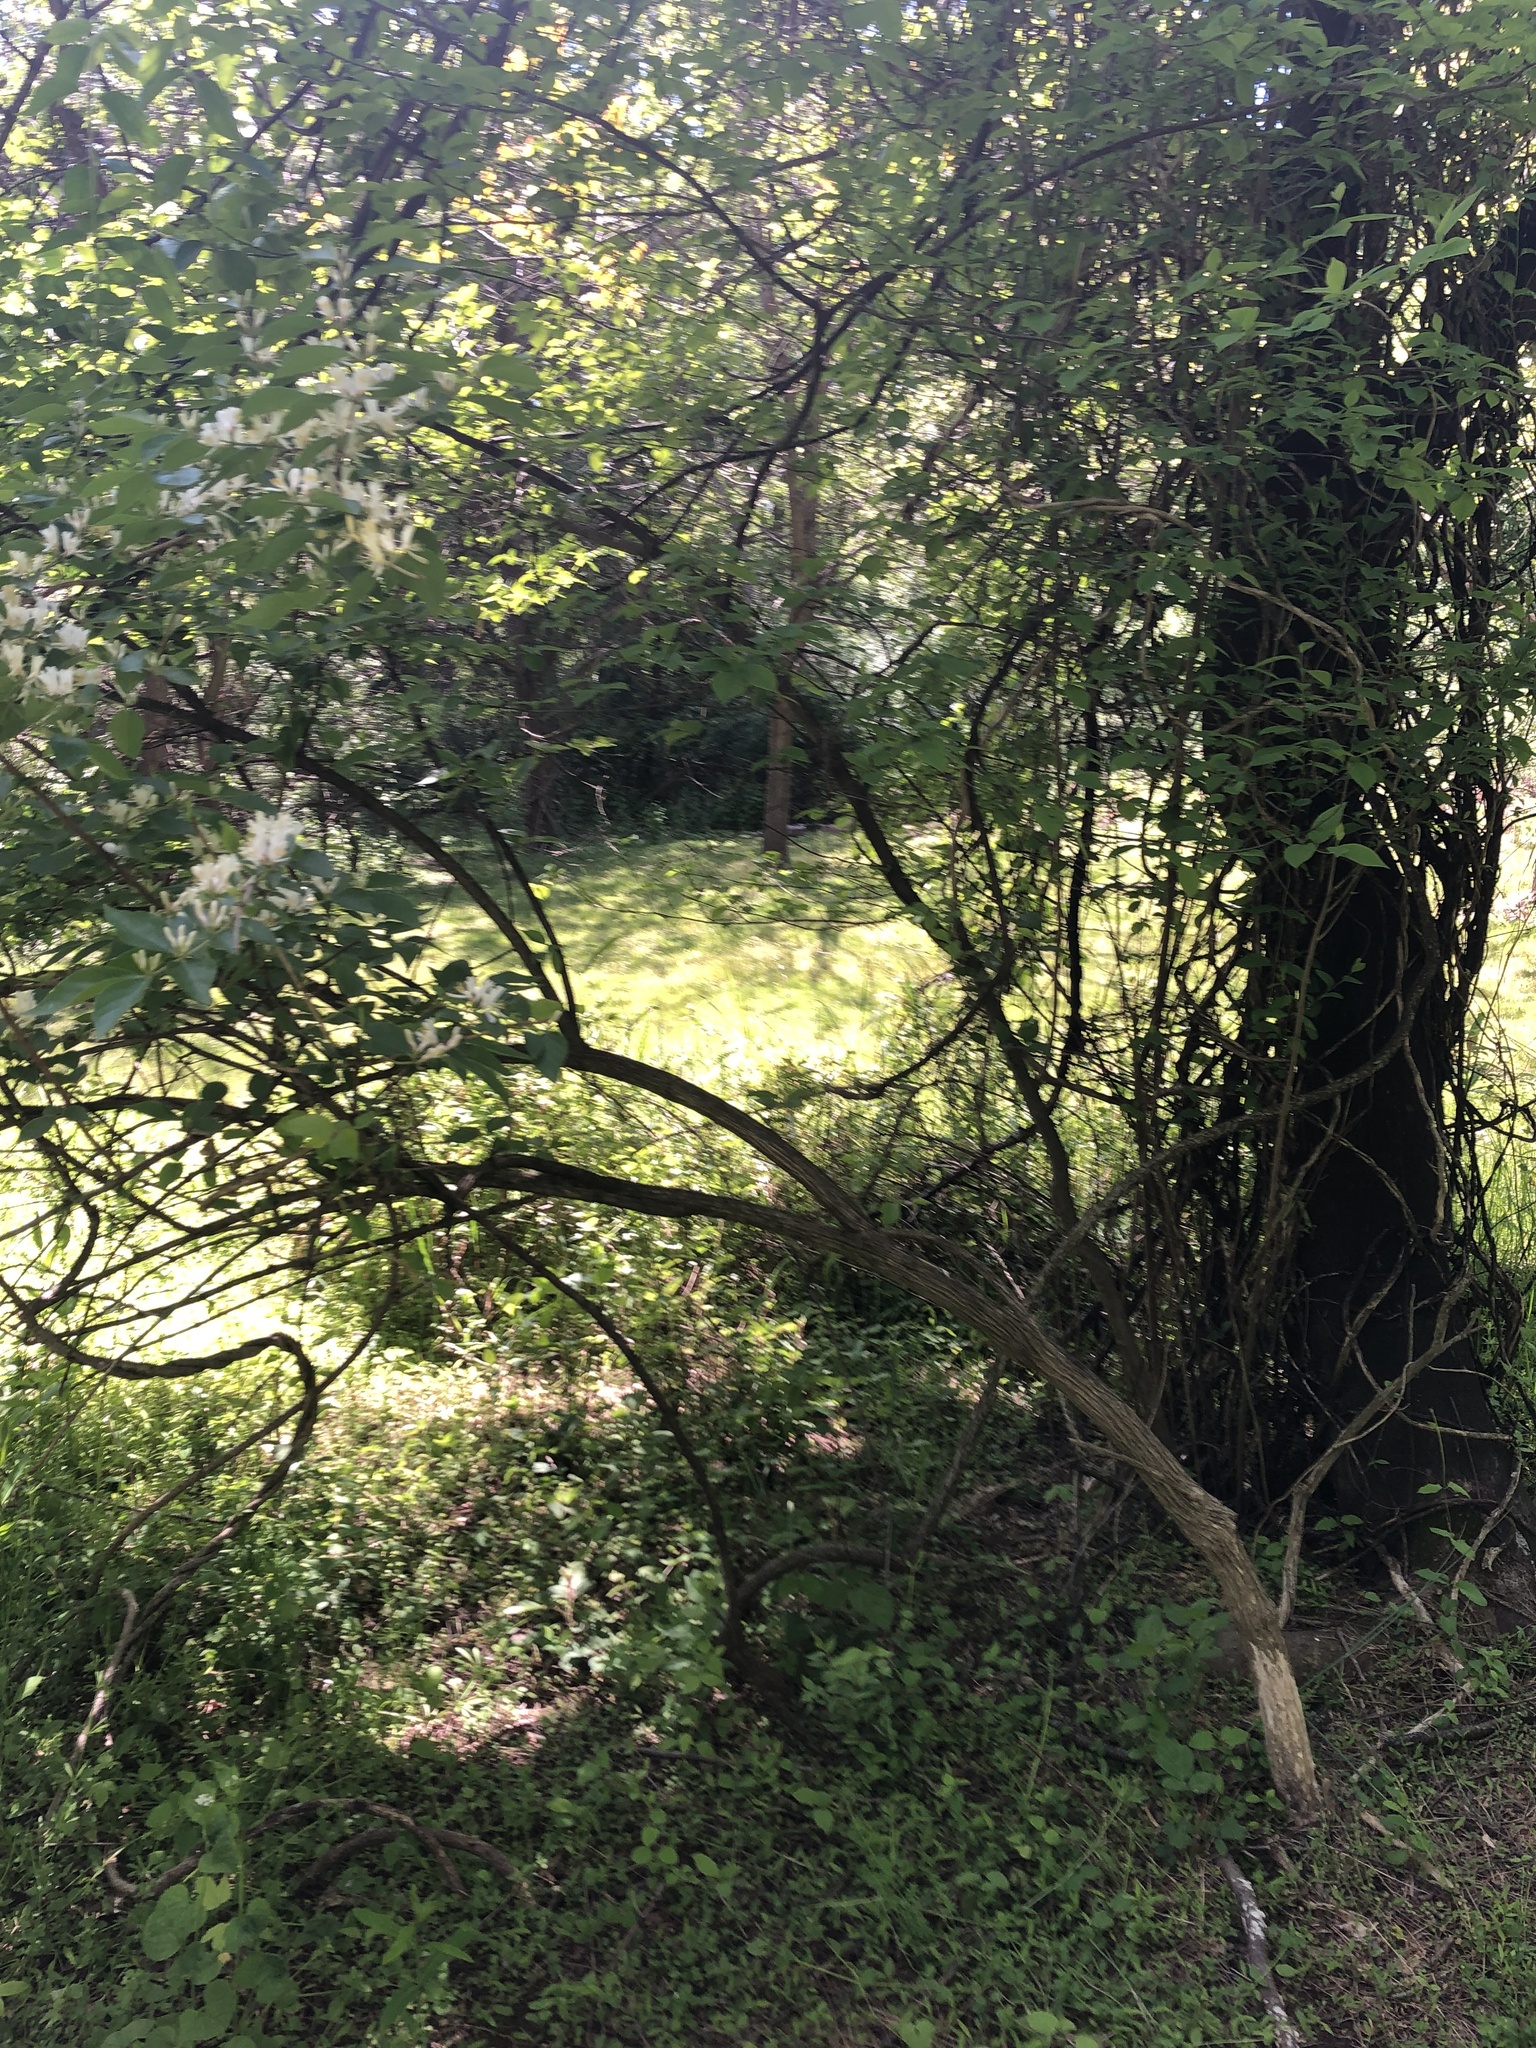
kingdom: Plantae
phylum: Tracheophyta
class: Magnoliopsida
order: Dipsacales
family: Caprifoliaceae
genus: Lonicera
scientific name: Lonicera maackii
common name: Amur honeysuckle
